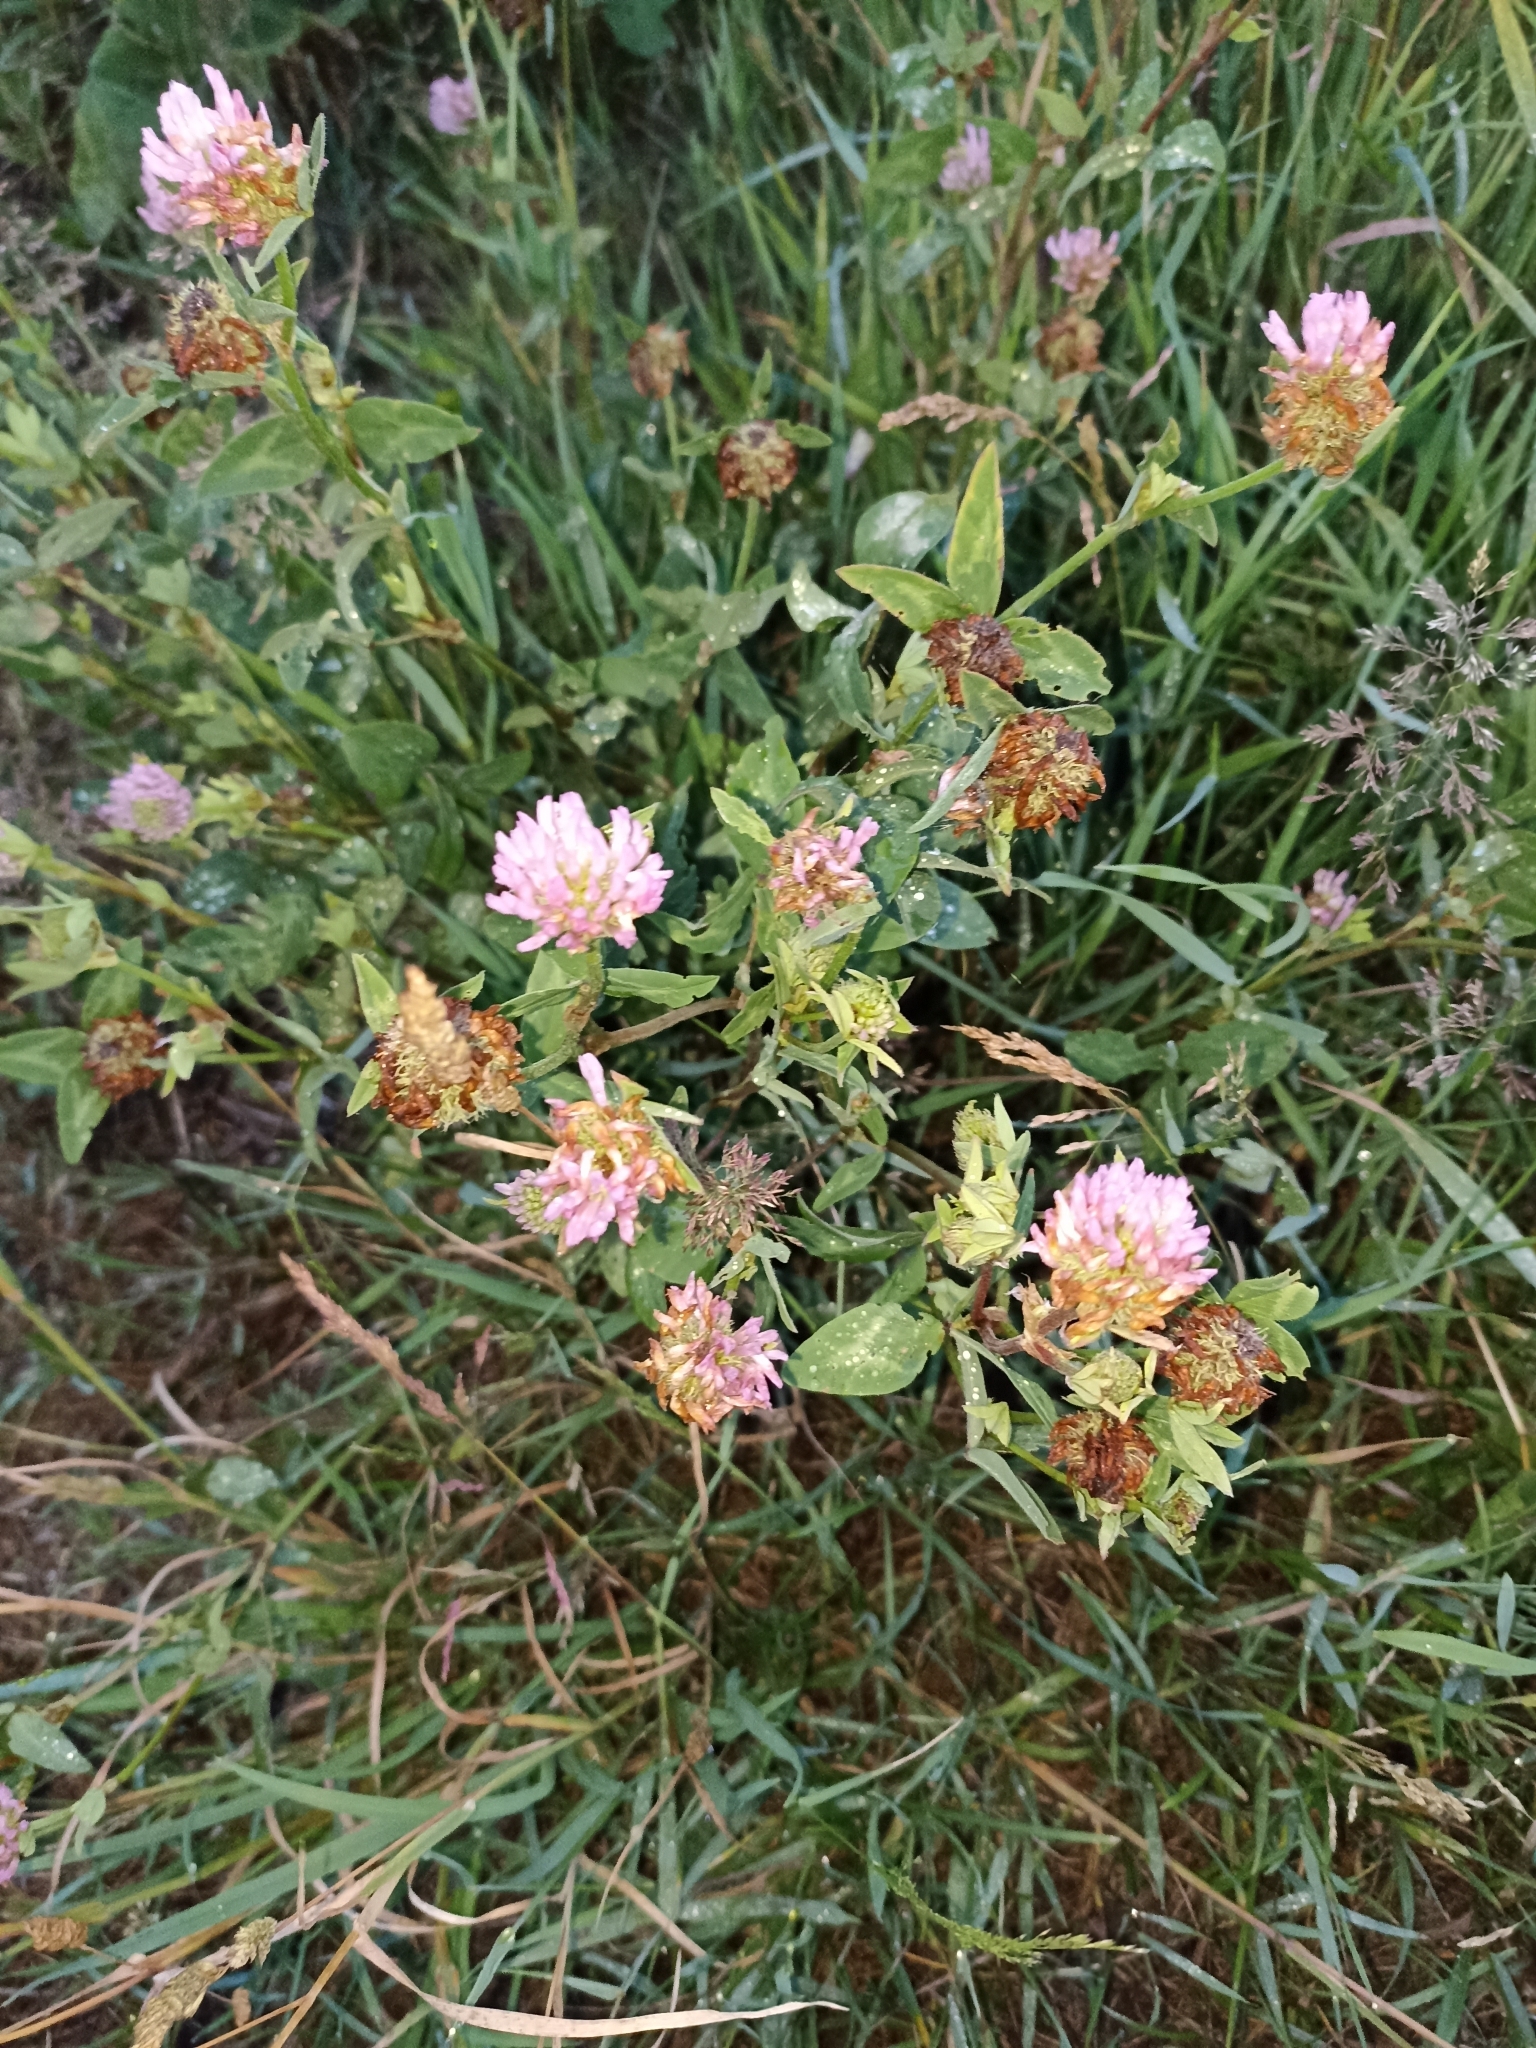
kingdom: Plantae
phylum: Tracheophyta
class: Magnoliopsida
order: Fabales
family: Fabaceae
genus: Trifolium
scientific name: Trifolium pratense
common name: Red clover
